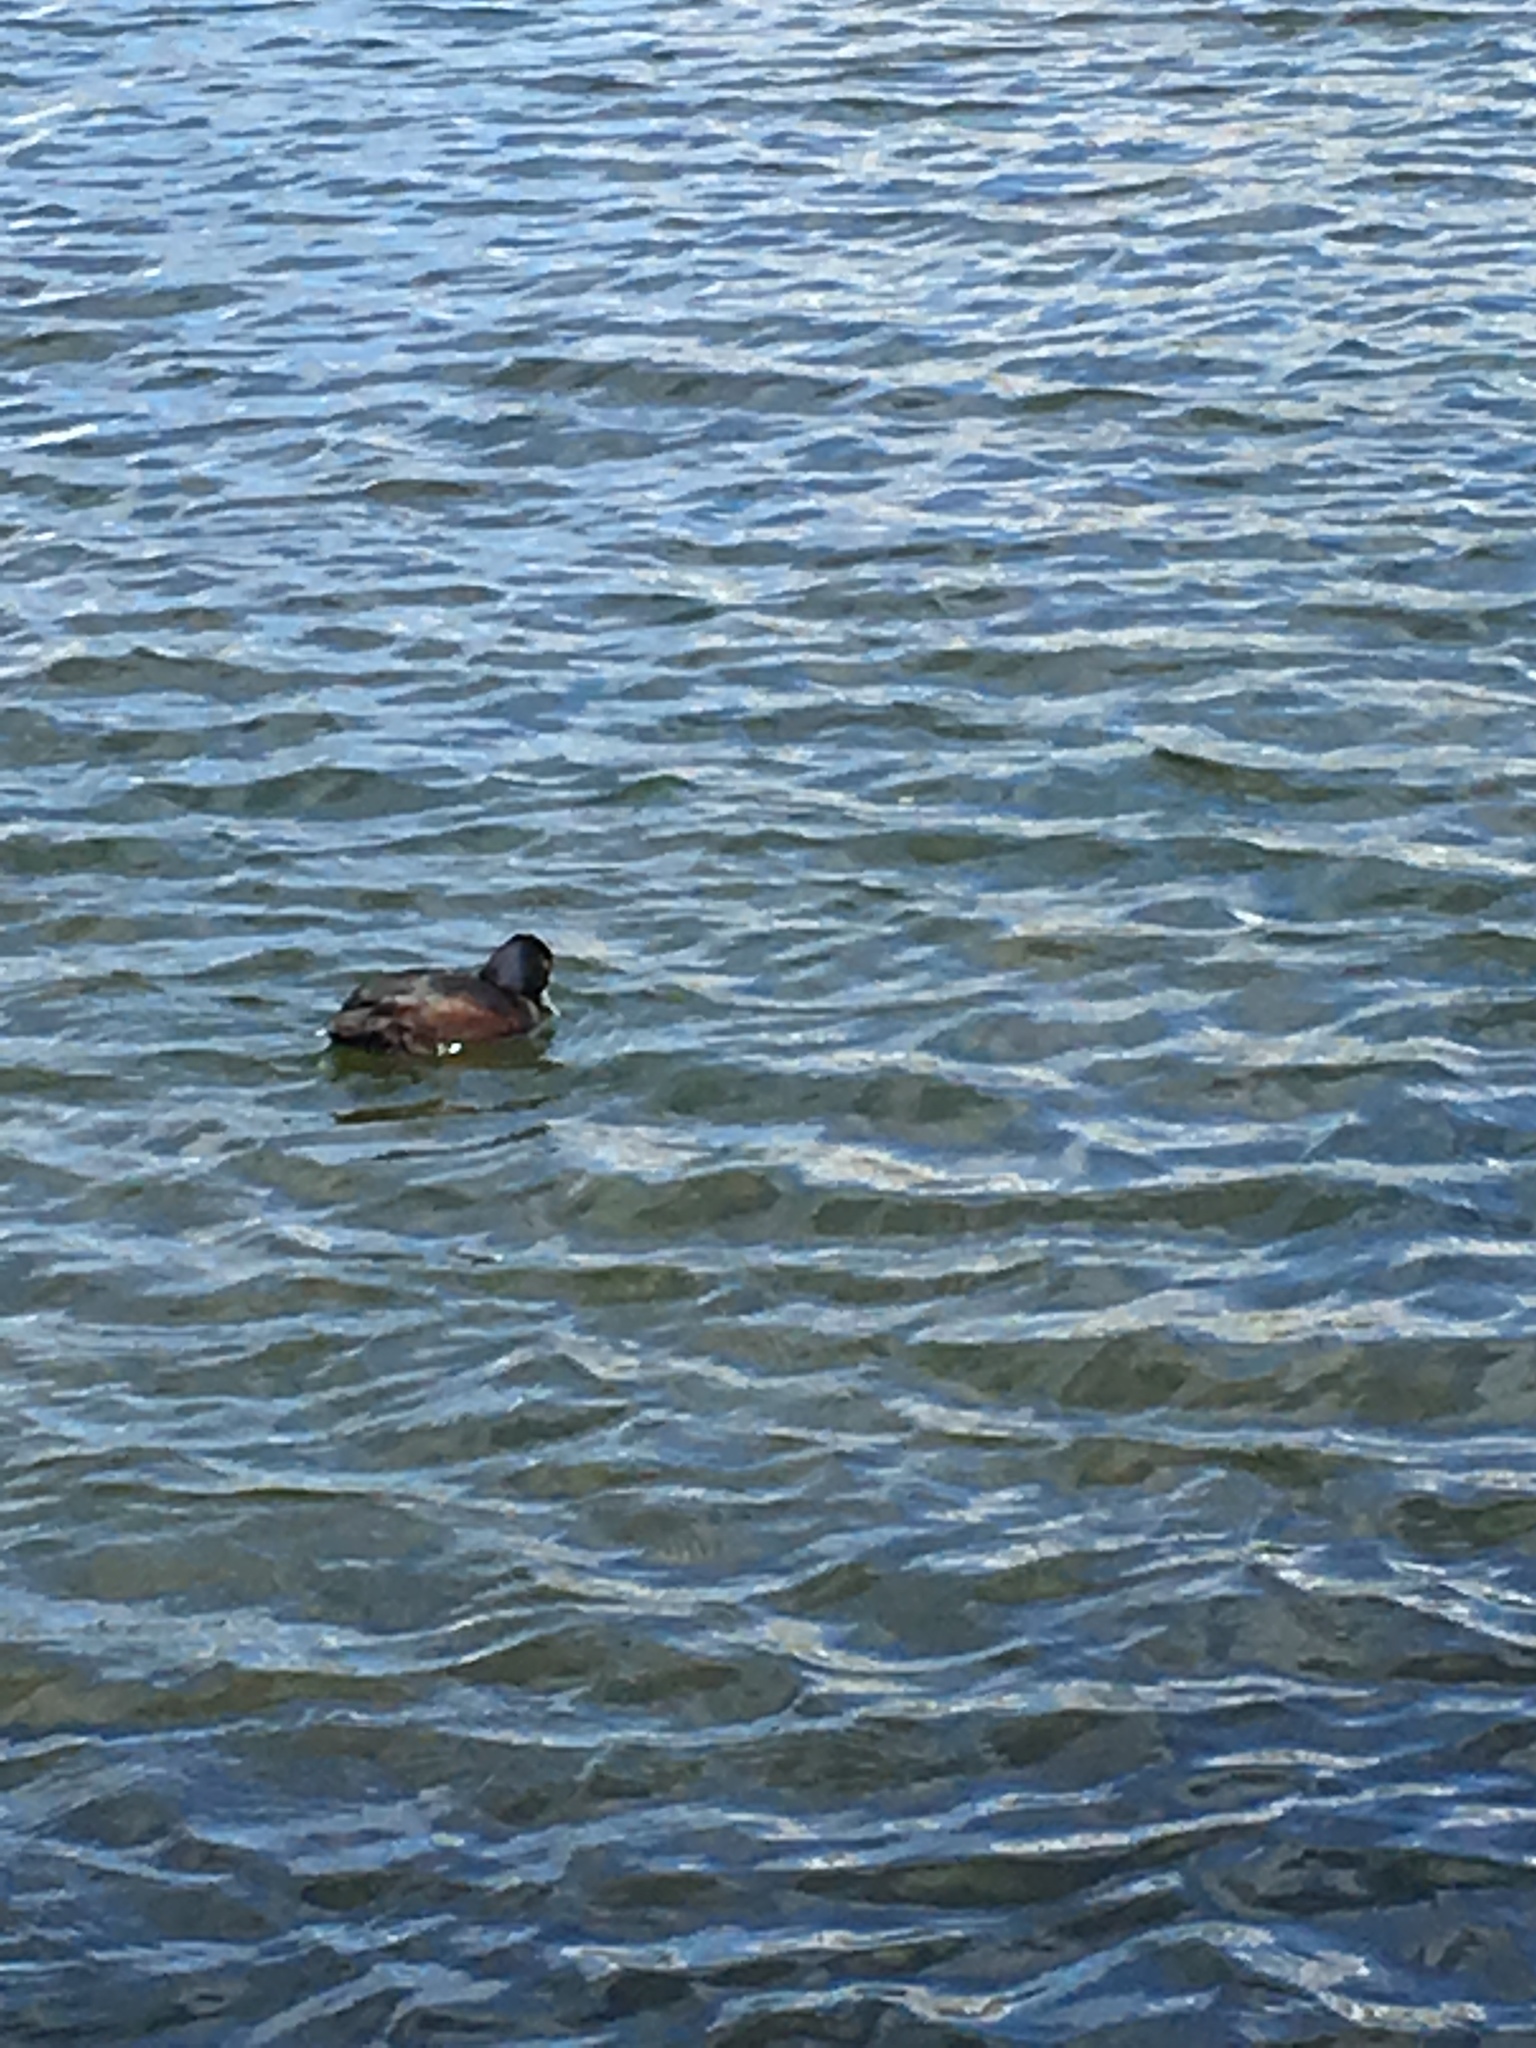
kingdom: Animalia
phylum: Chordata
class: Aves
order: Anseriformes
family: Anatidae
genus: Aythya
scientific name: Aythya novaeseelandiae
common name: New zealand scaup
